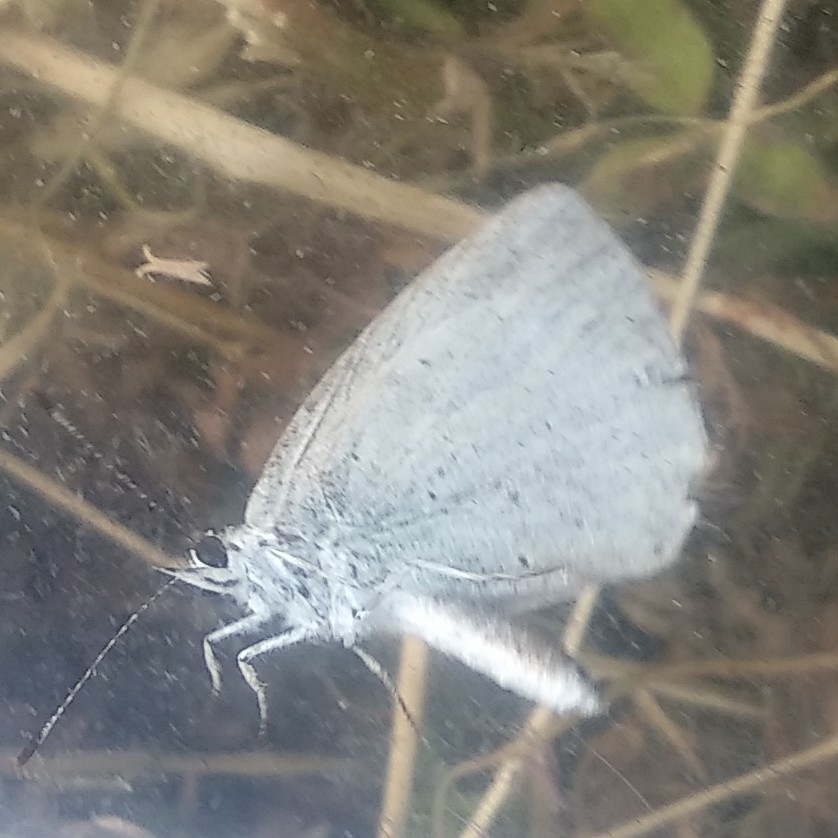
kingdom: Animalia
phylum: Arthropoda
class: Insecta
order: Lepidoptera
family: Lycaenidae
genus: Celastrina
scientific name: Celastrina argiolus
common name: Holly blue
